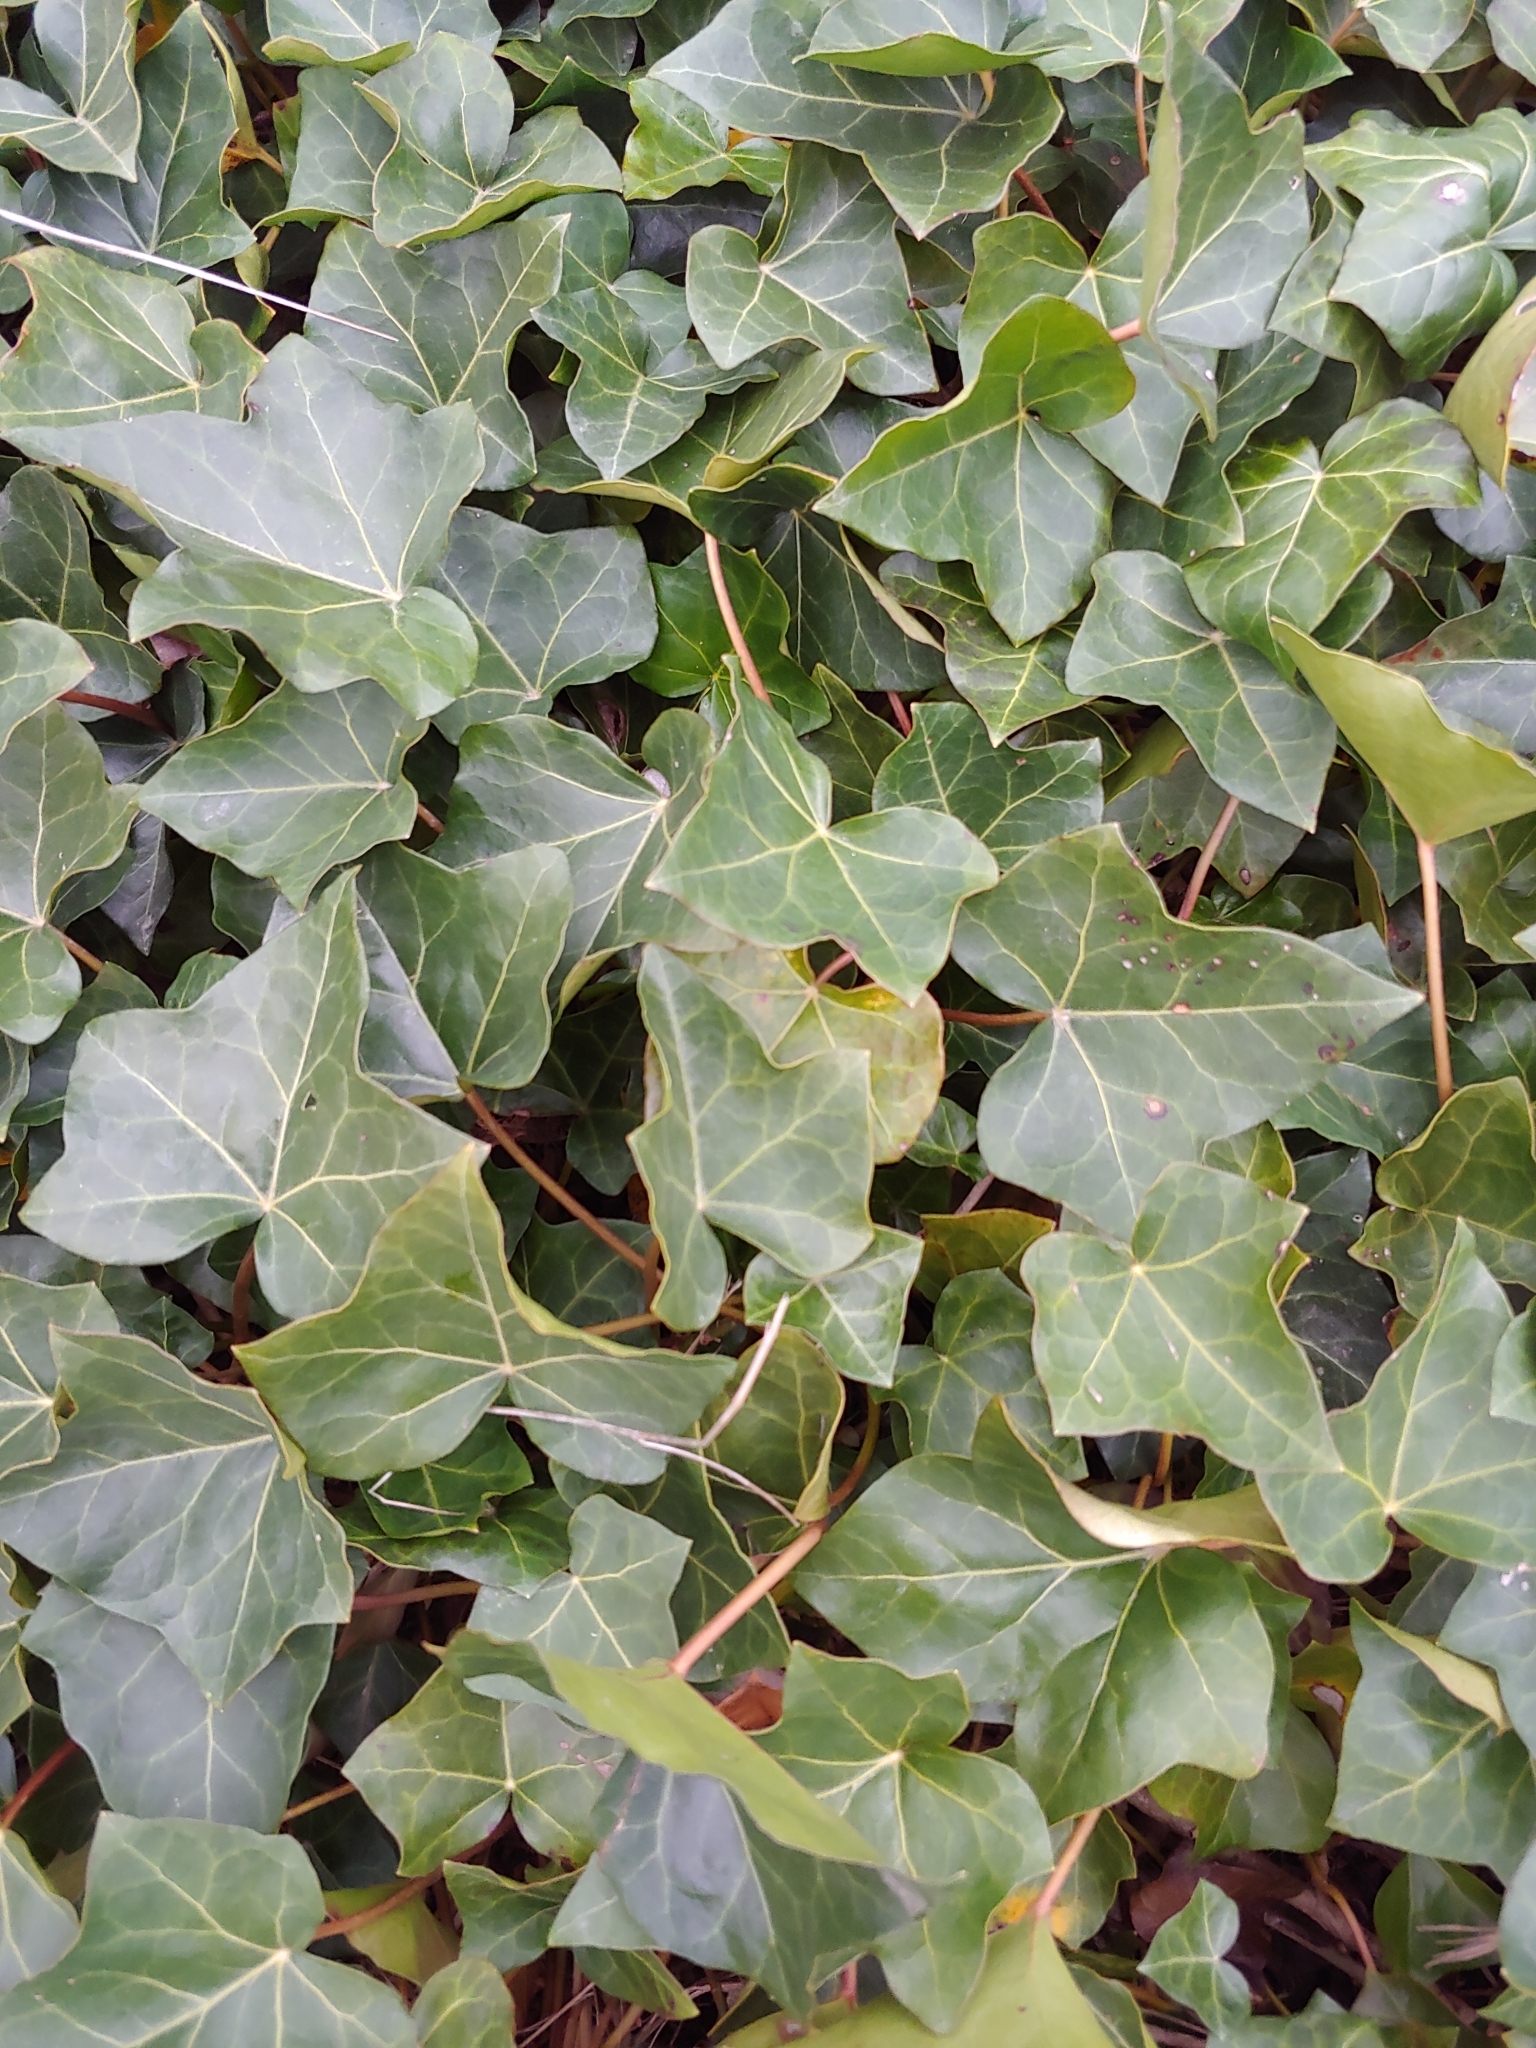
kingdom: Plantae
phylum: Tracheophyta
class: Magnoliopsida
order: Apiales
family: Araliaceae
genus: Hedera
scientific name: Hedera helix
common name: Ivy
